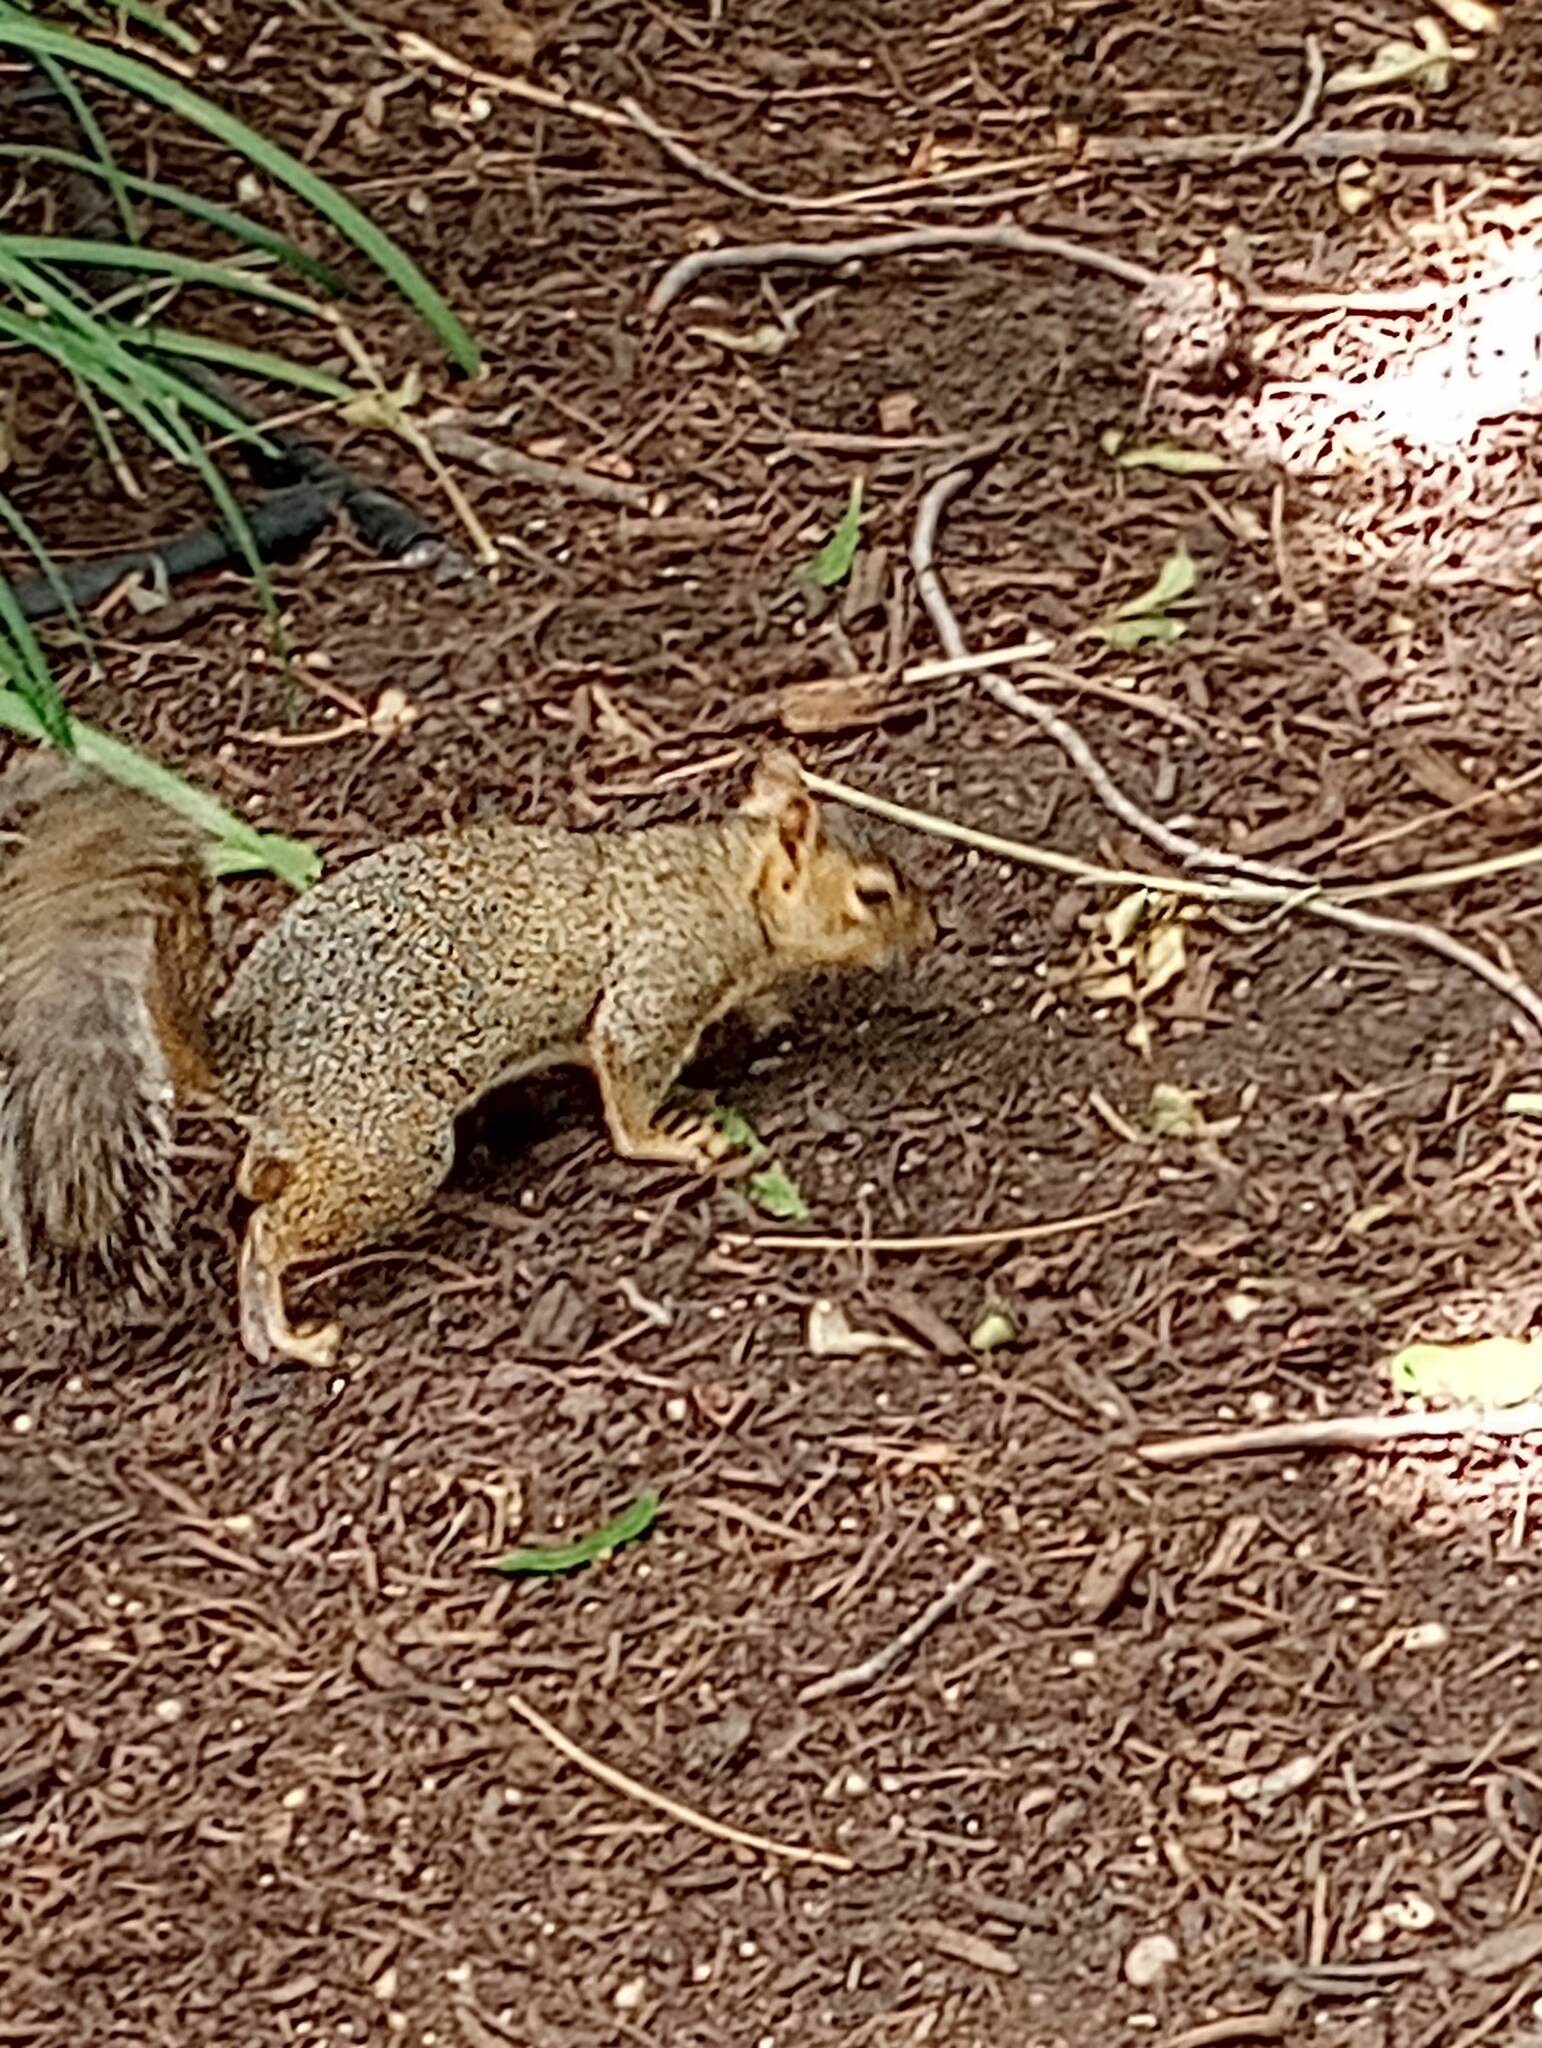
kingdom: Animalia
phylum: Chordata
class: Mammalia
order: Rodentia
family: Sciuridae
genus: Sciurus
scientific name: Sciurus niger
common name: Fox squirrel
